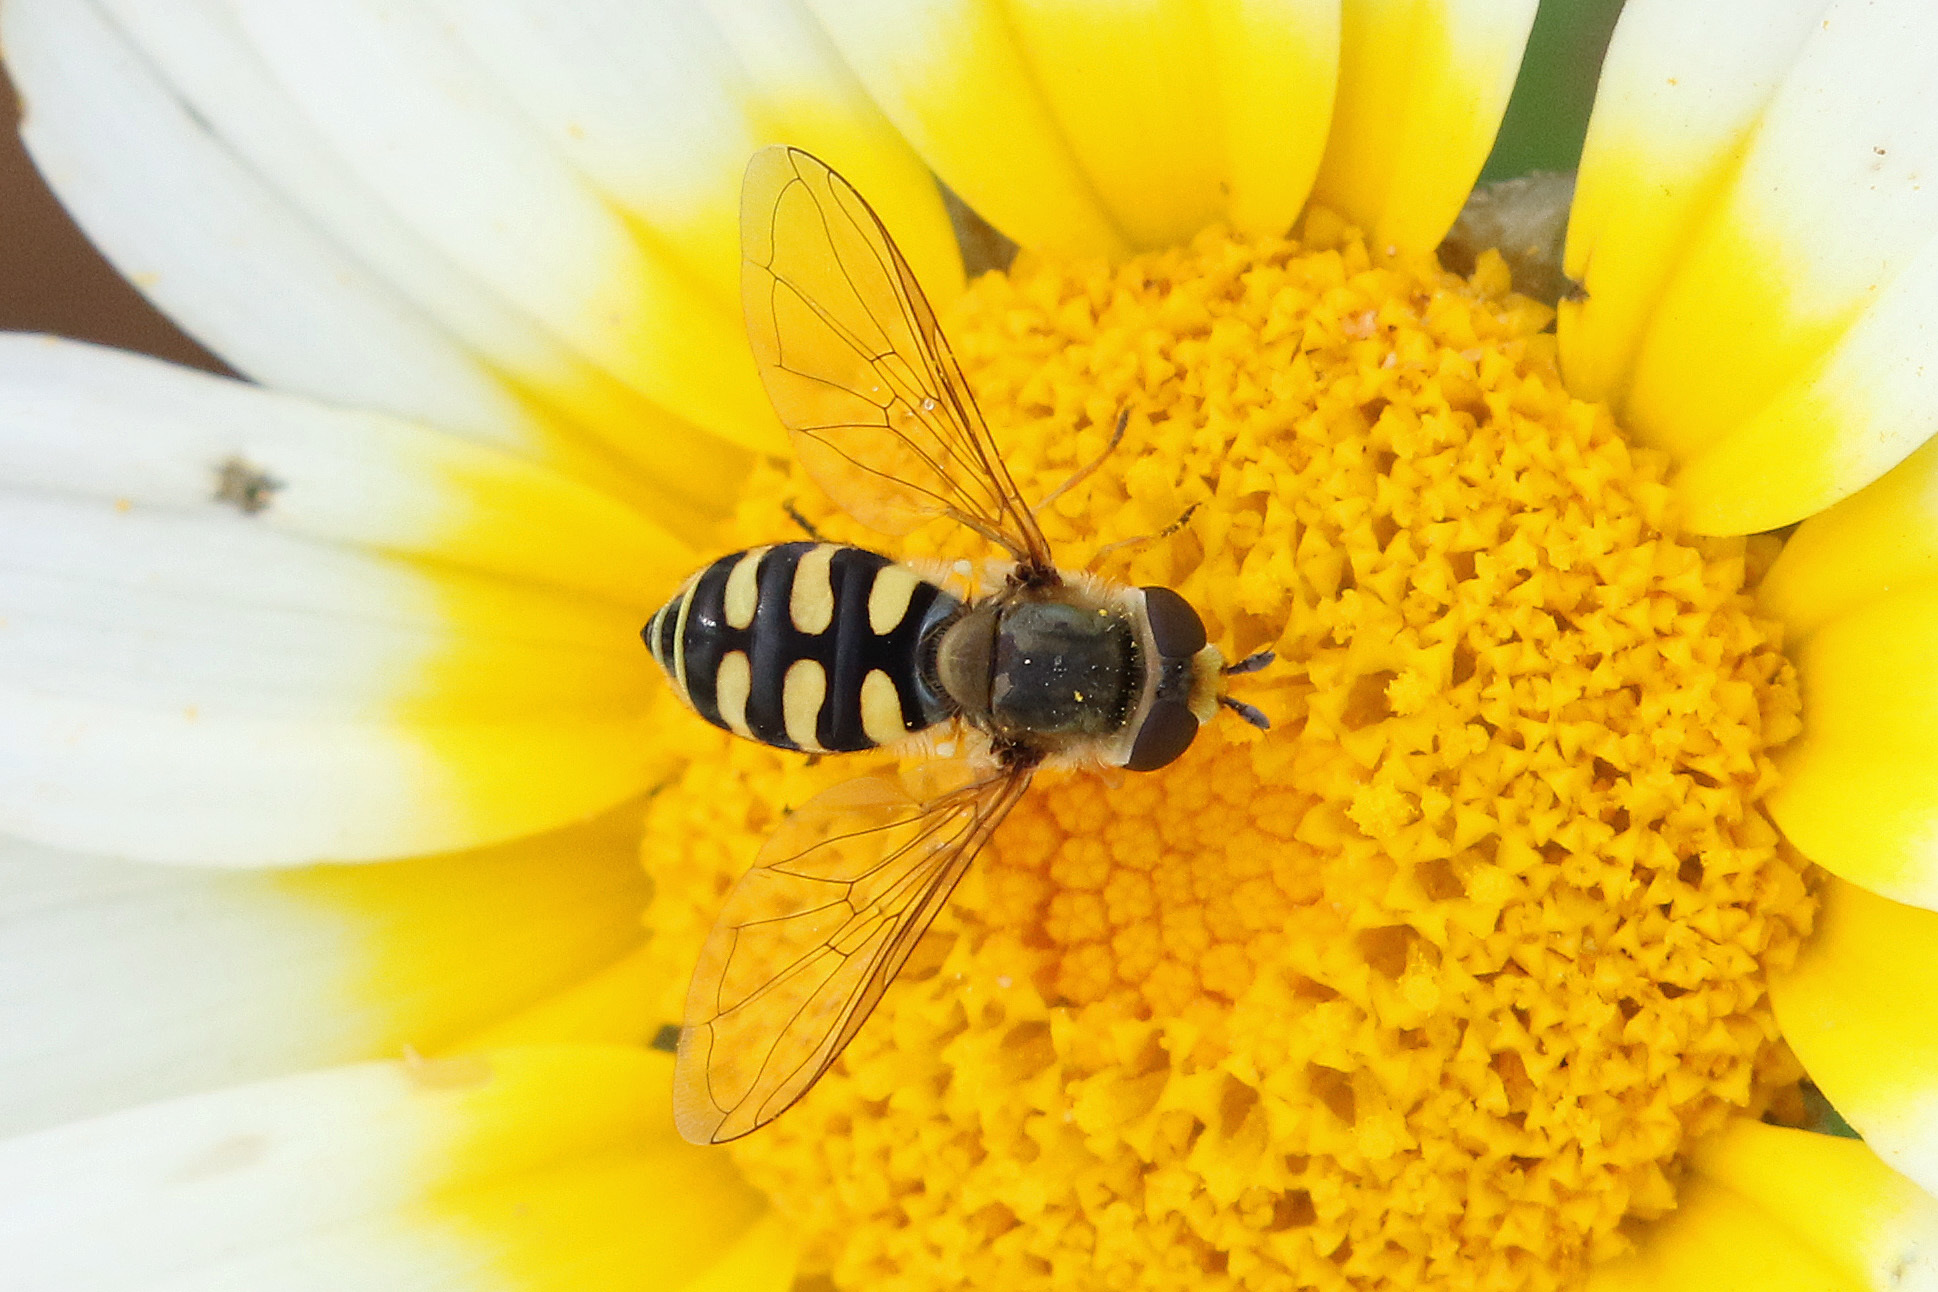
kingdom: Animalia
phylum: Arthropoda
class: Insecta
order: Diptera
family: Syrphidae
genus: Eupeodes
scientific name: Eupeodes corollae
